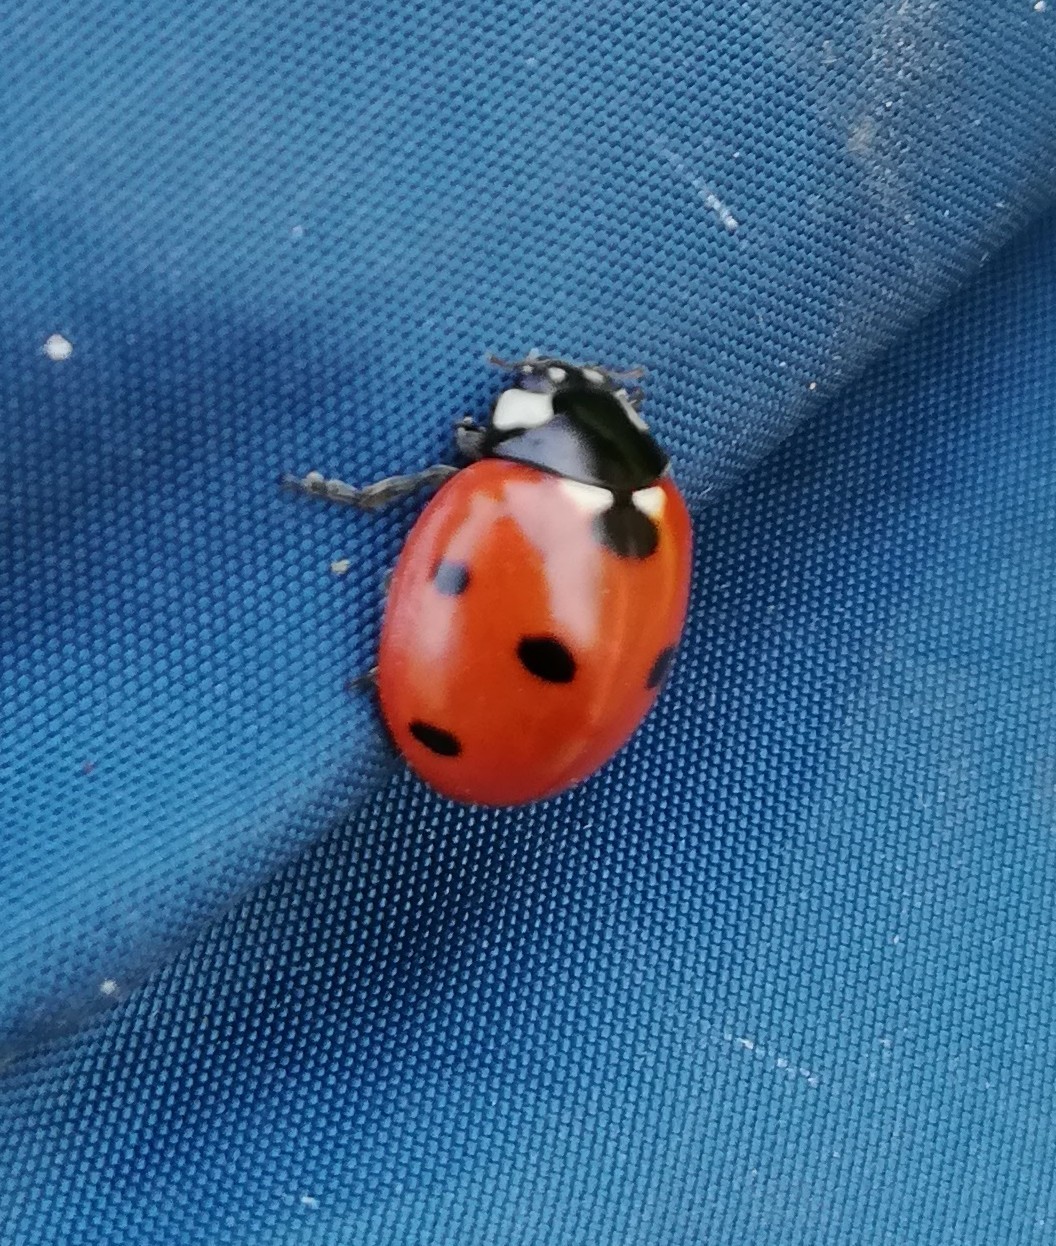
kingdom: Animalia
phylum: Arthropoda
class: Insecta
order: Coleoptera
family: Coccinellidae
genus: Coccinella
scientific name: Coccinella septempunctata
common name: Sevenspotted lady beetle
